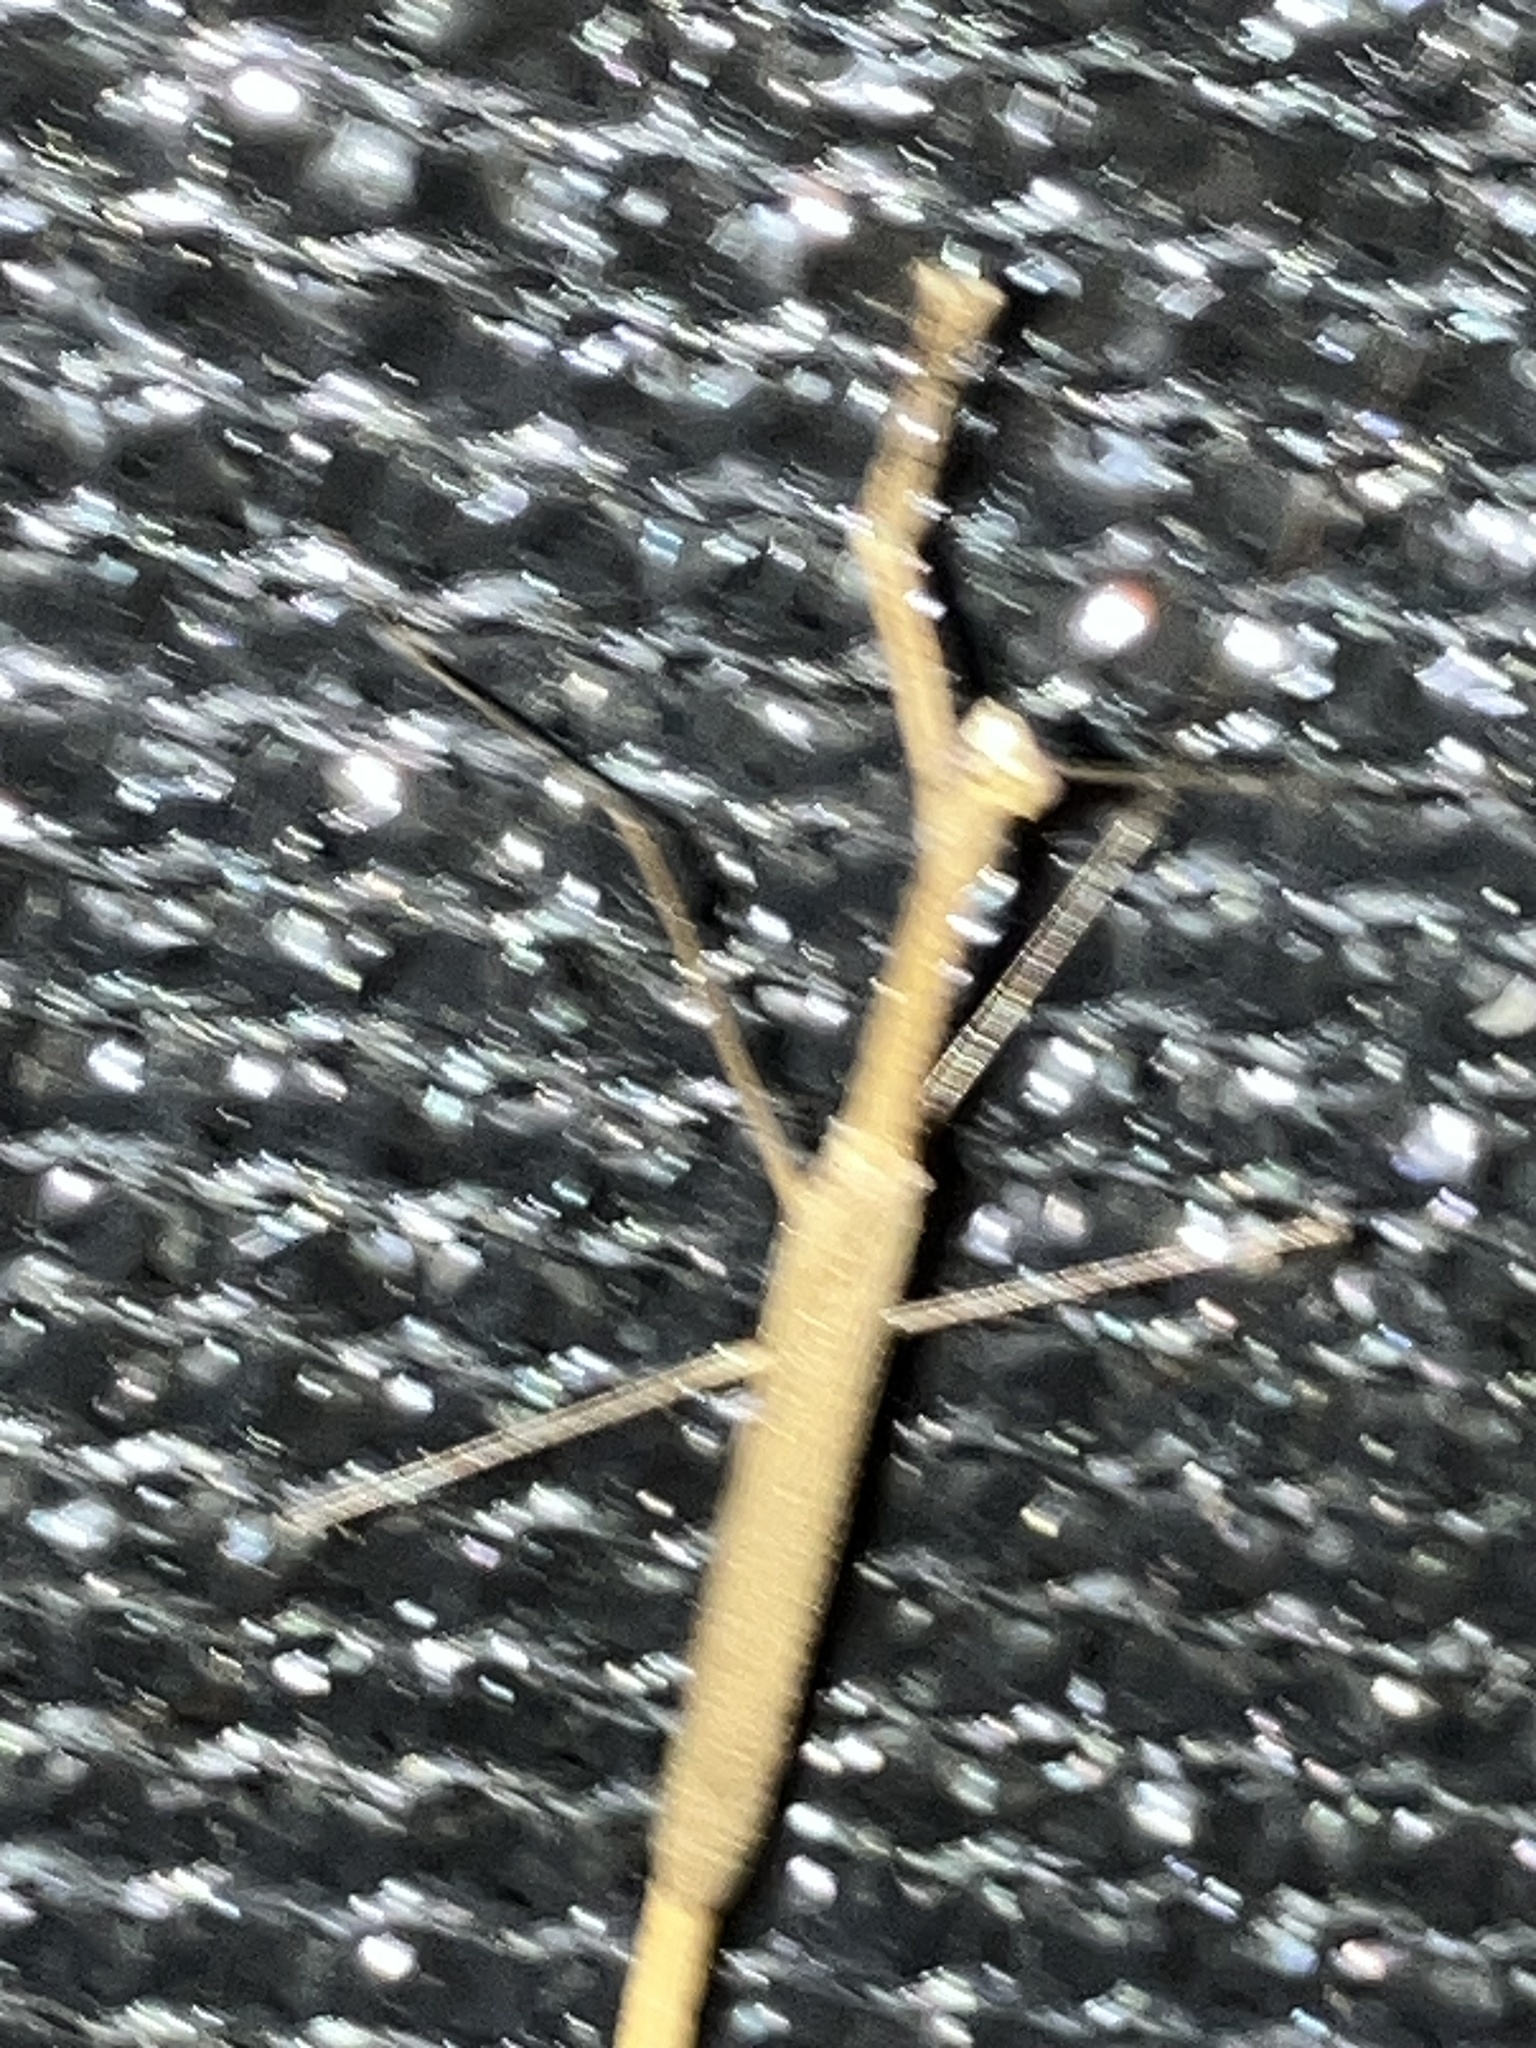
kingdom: Animalia
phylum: Arthropoda
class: Insecta
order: Mantodea
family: Thespidae
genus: Thesprotia
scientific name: Thesprotia graminis
